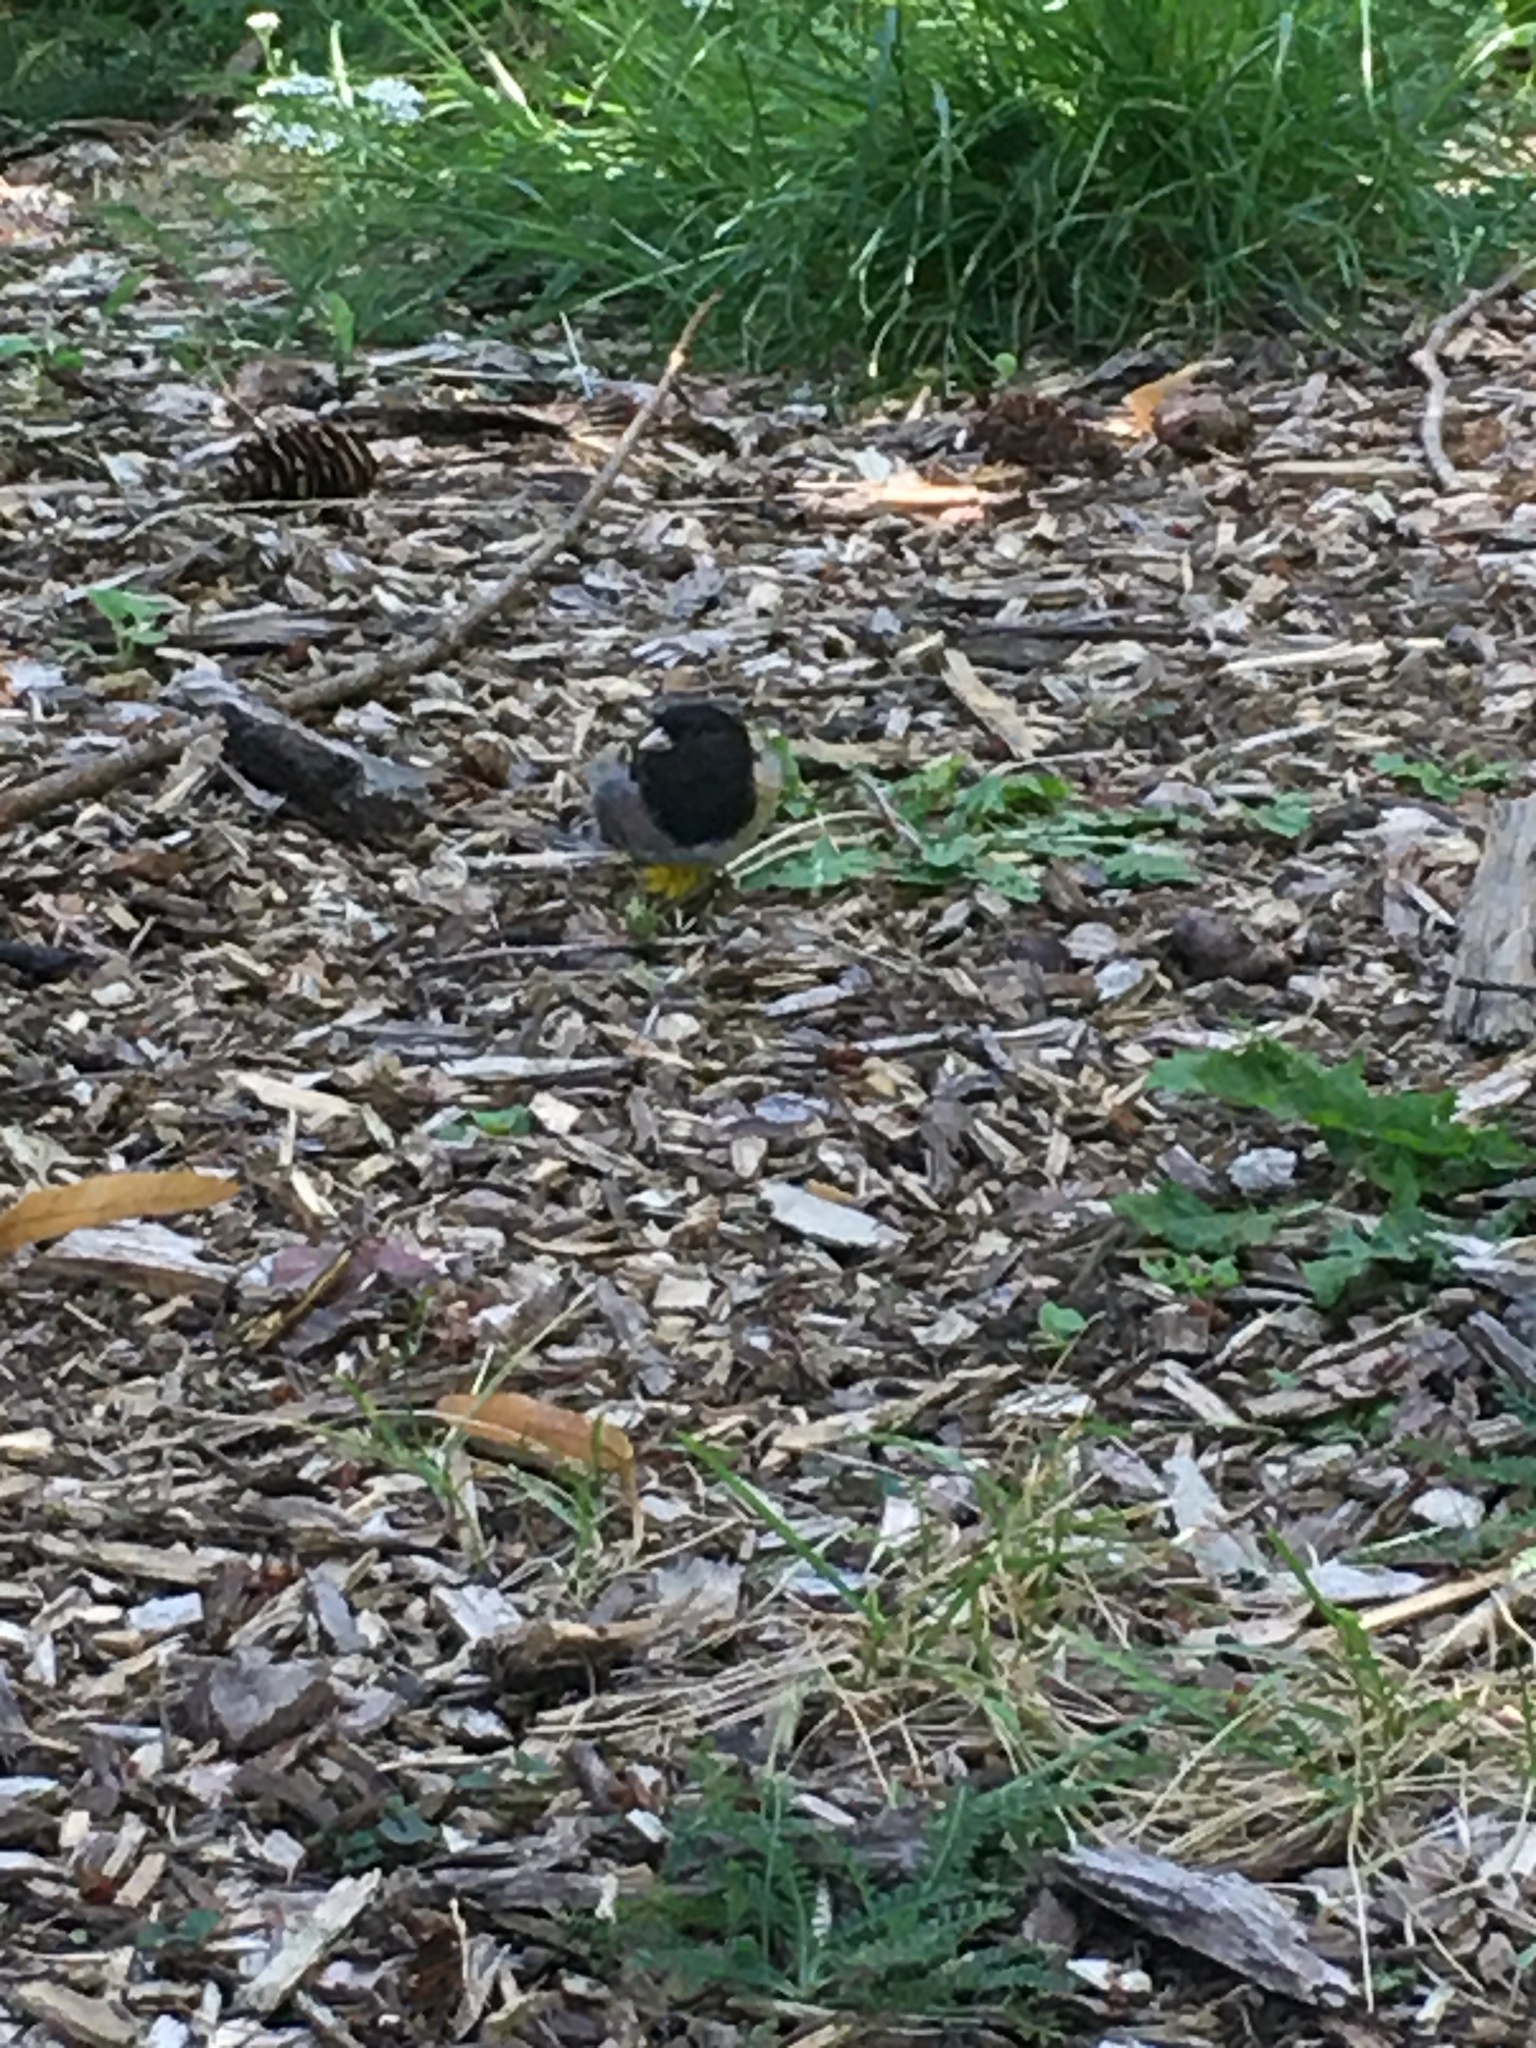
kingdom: Animalia
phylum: Chordata
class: Aves
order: Passeriformes
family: Passerellidae
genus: Junco
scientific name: Junco hyemalis
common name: Dark-eyed junco
